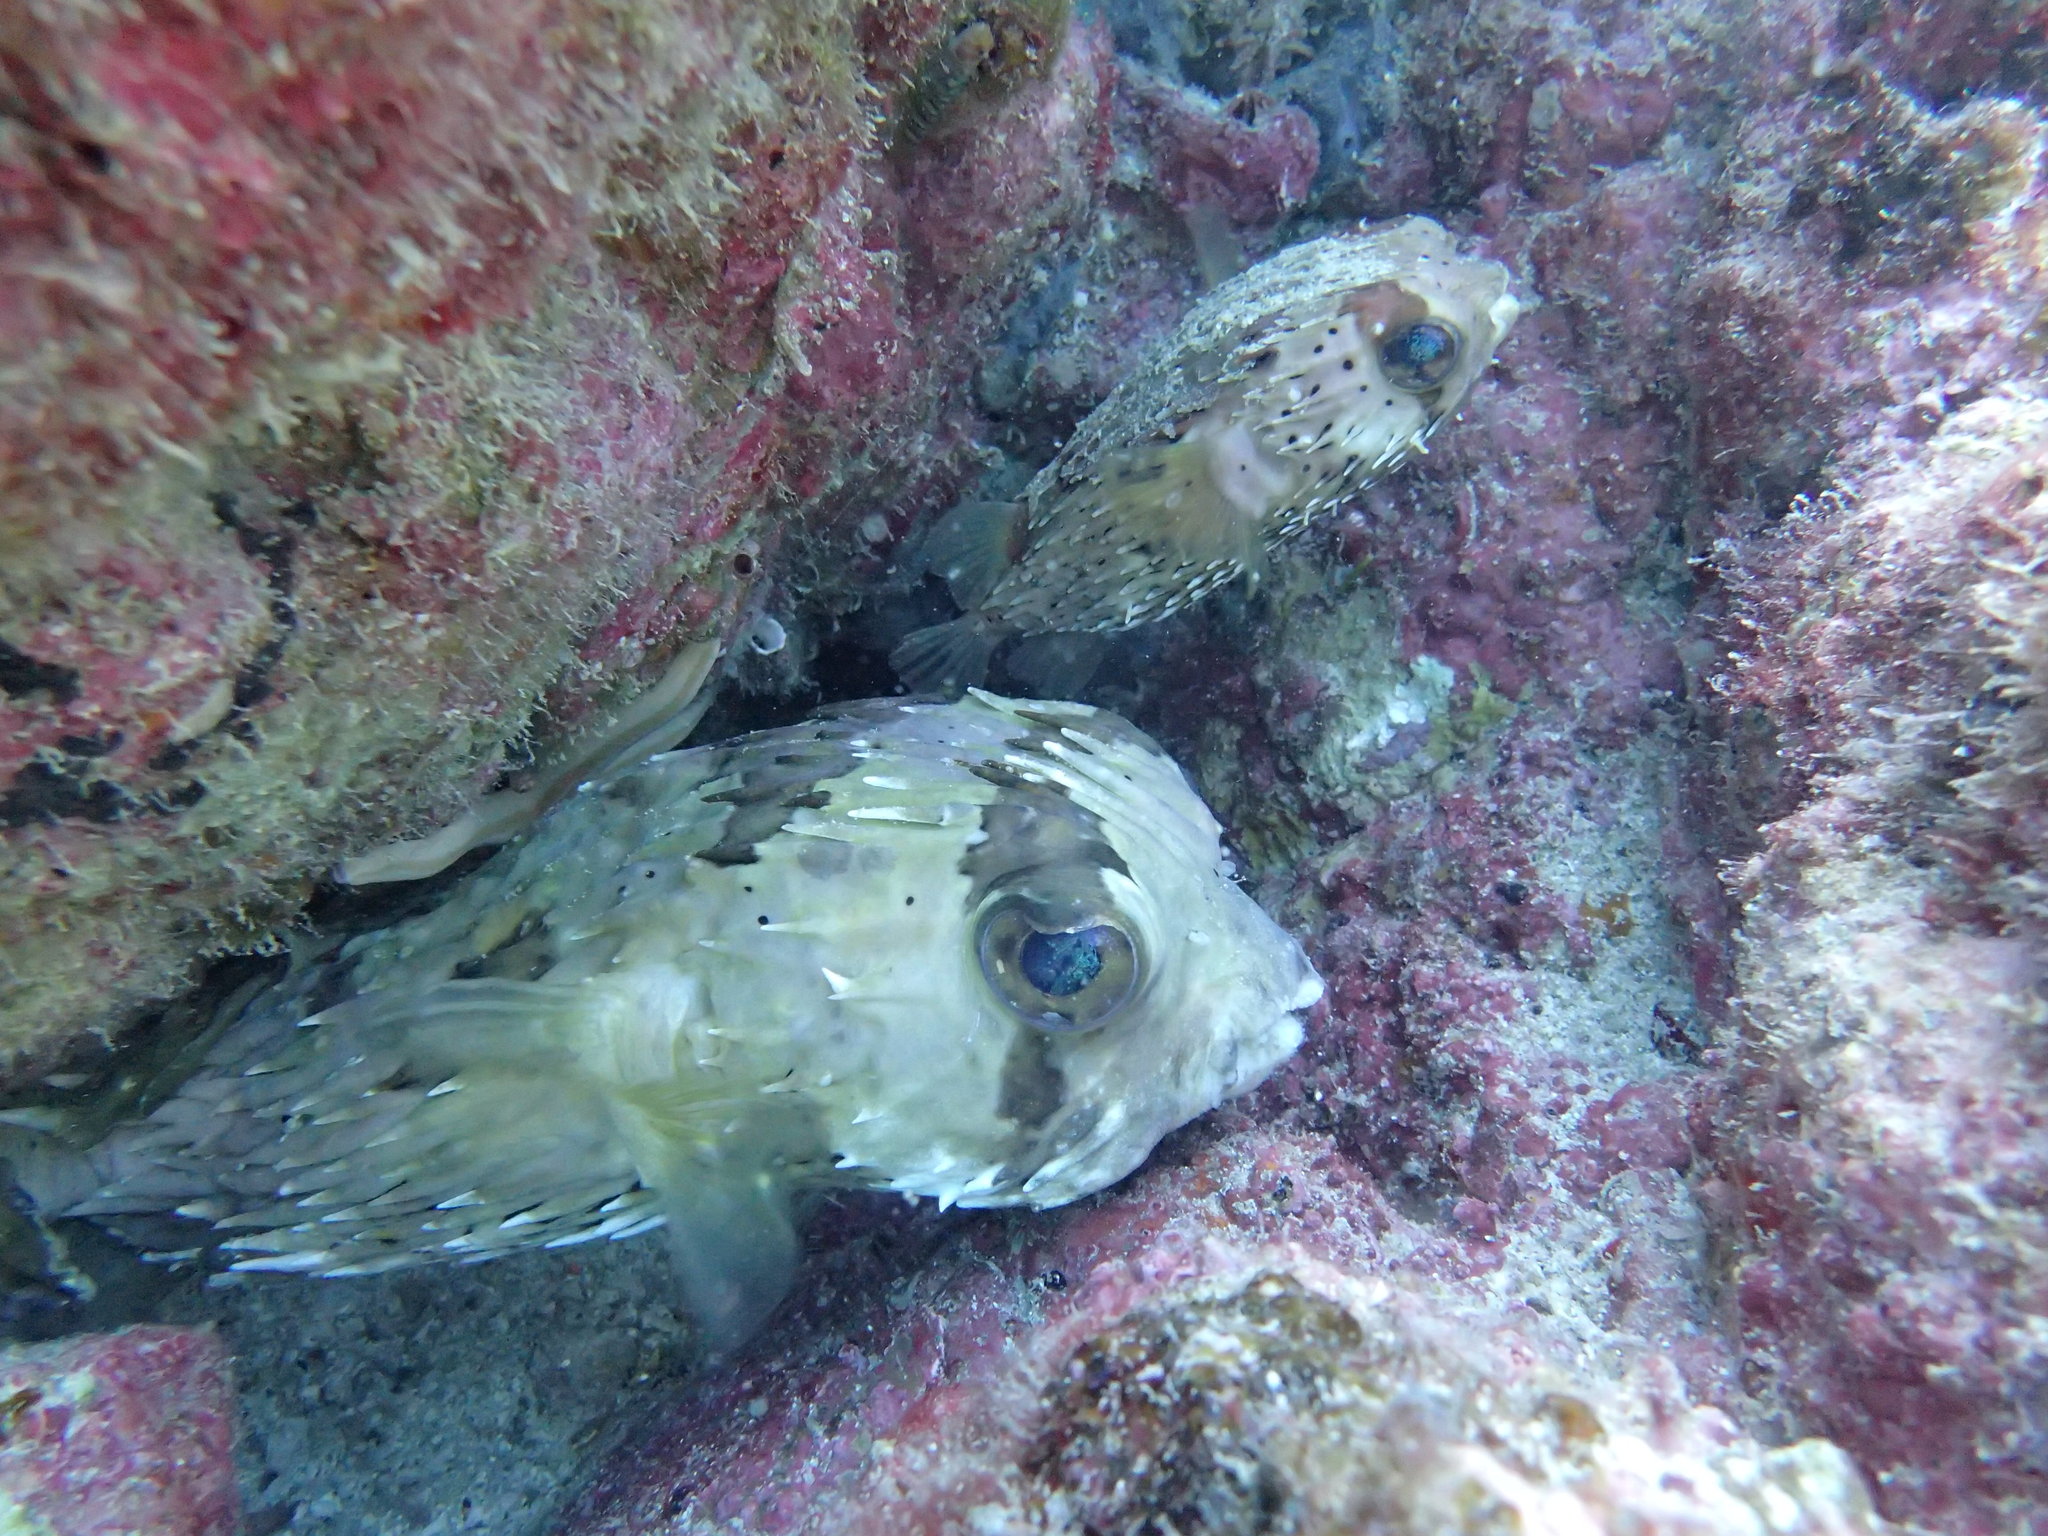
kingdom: Animalia
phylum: Chordata
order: Tetraodontiformes
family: Diodontidae
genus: Diodon
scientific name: Diodon holocanthus
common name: Balloonfish
